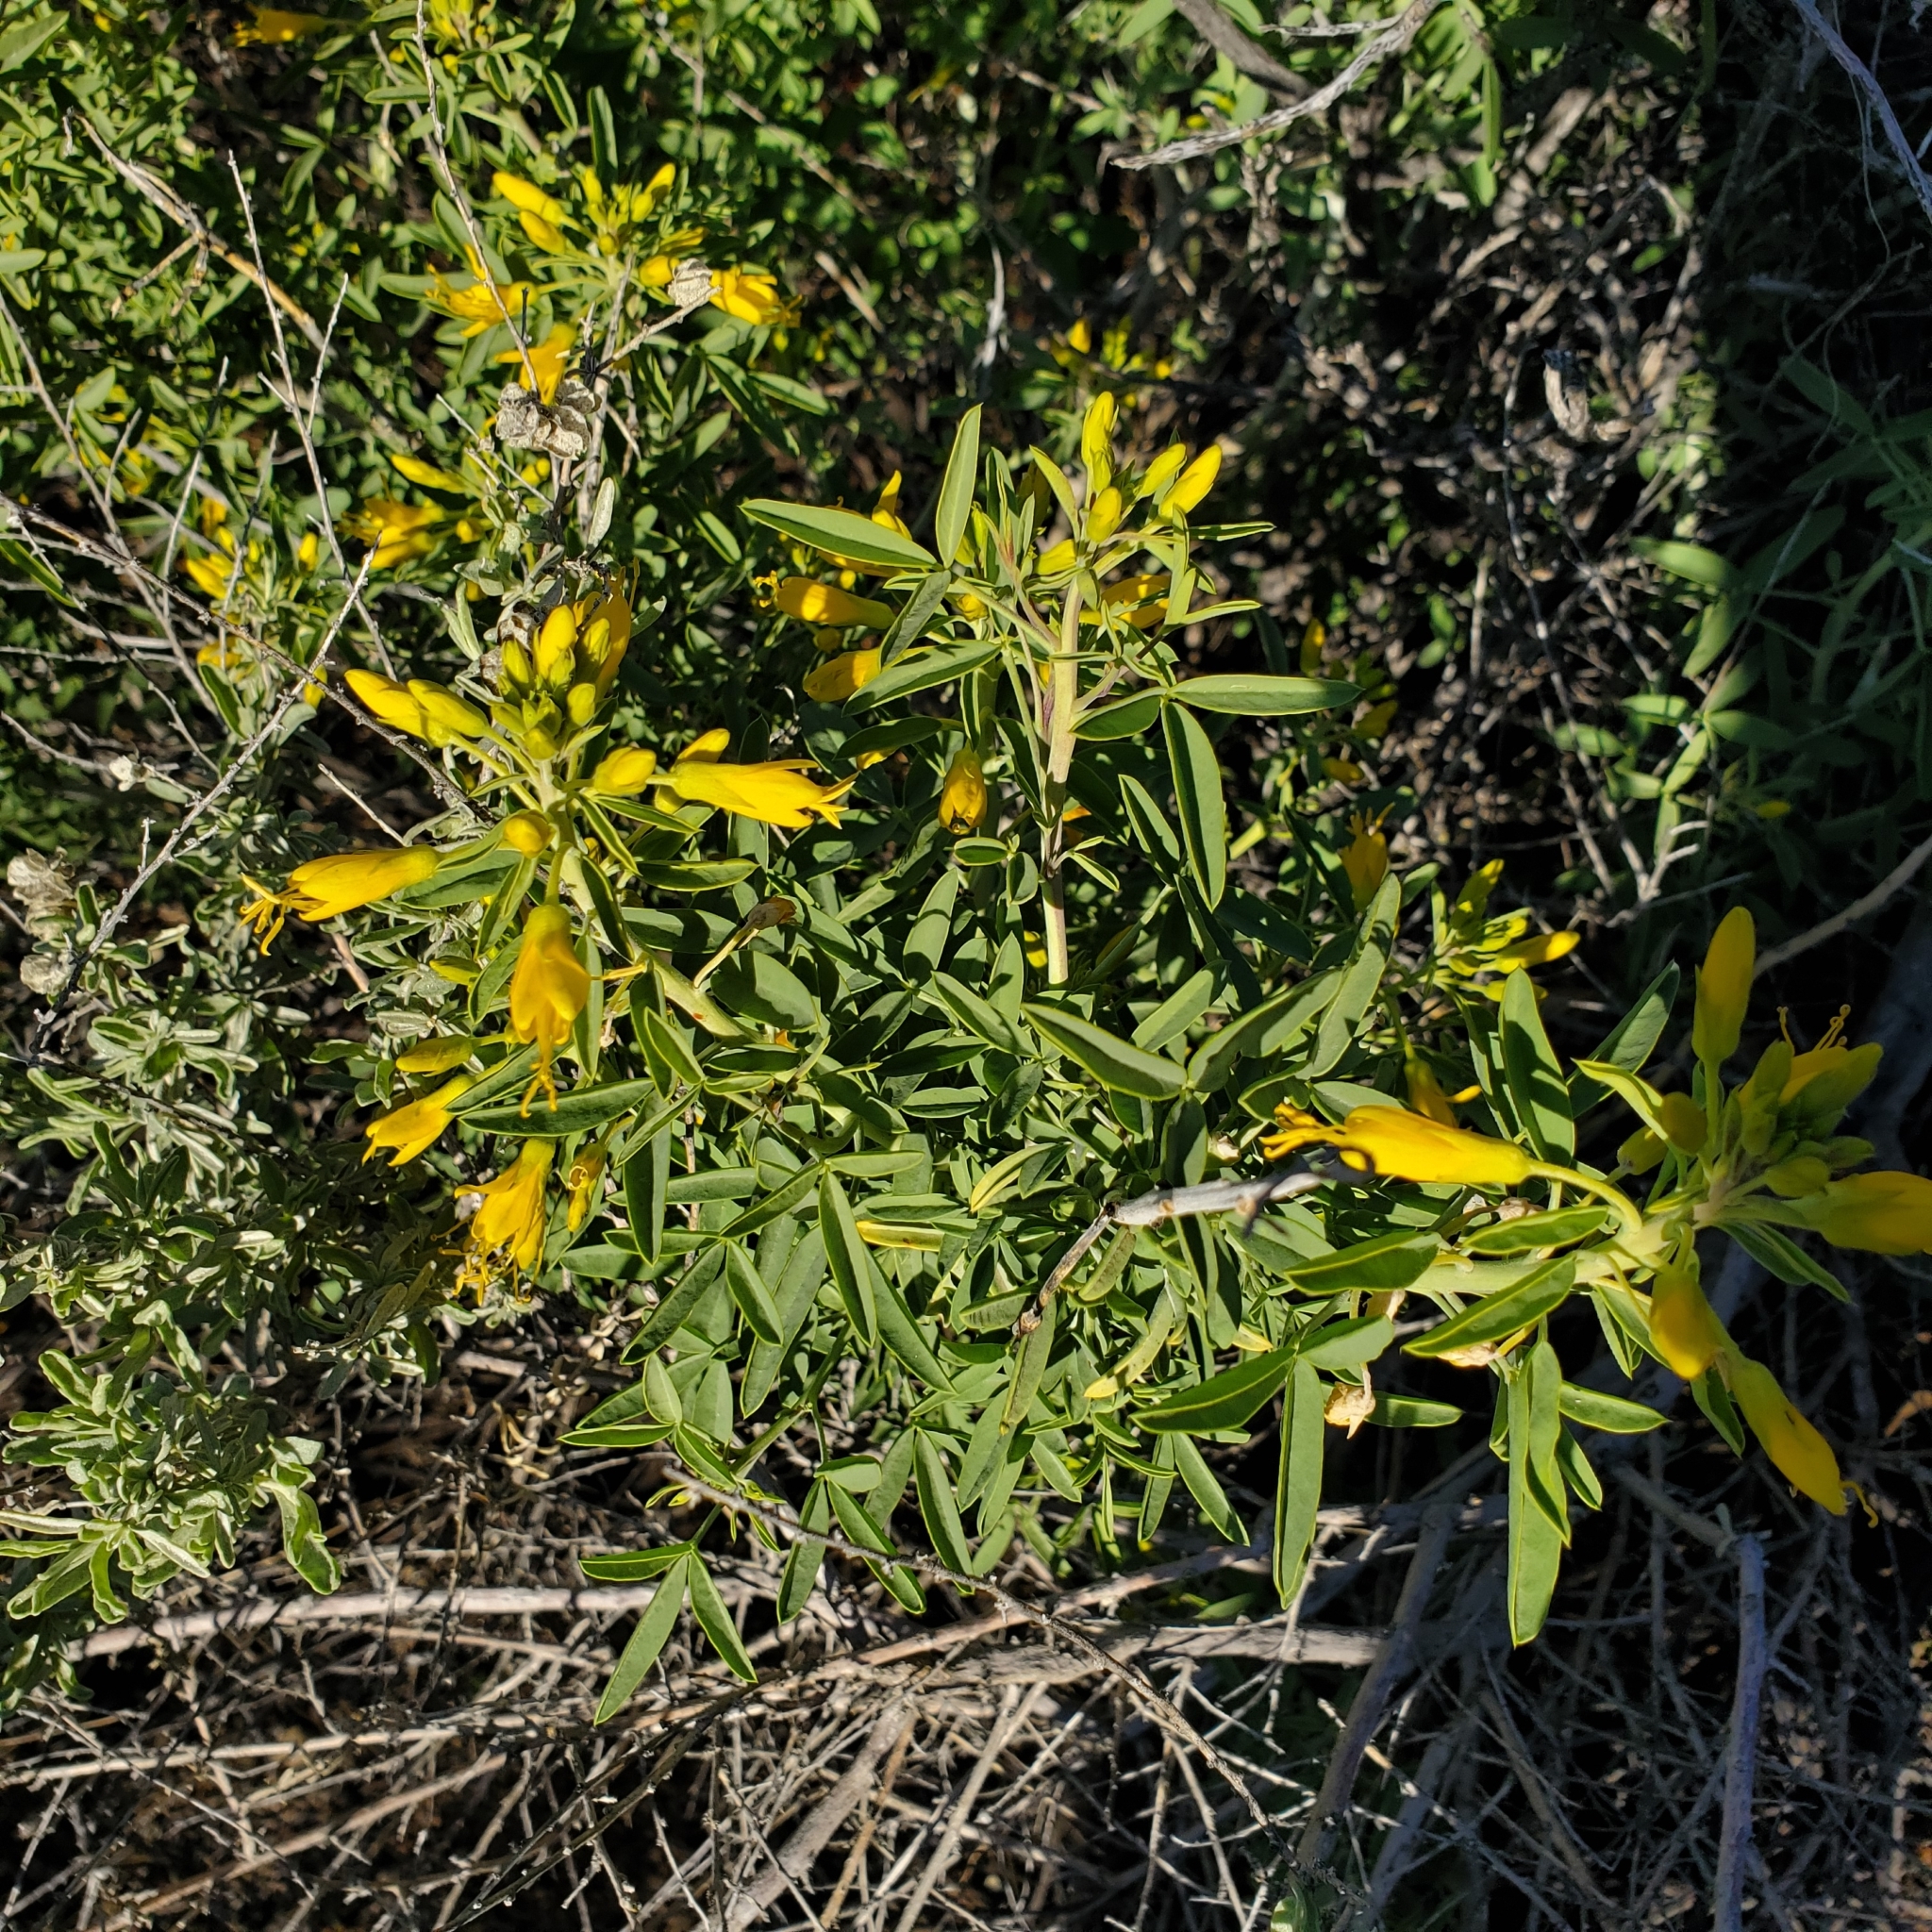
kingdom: Plantae
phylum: Tracheophyta
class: Magnoliopsida
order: Brassicales
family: Cleomaceae
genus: Cleomella
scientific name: Cleomella arborea
